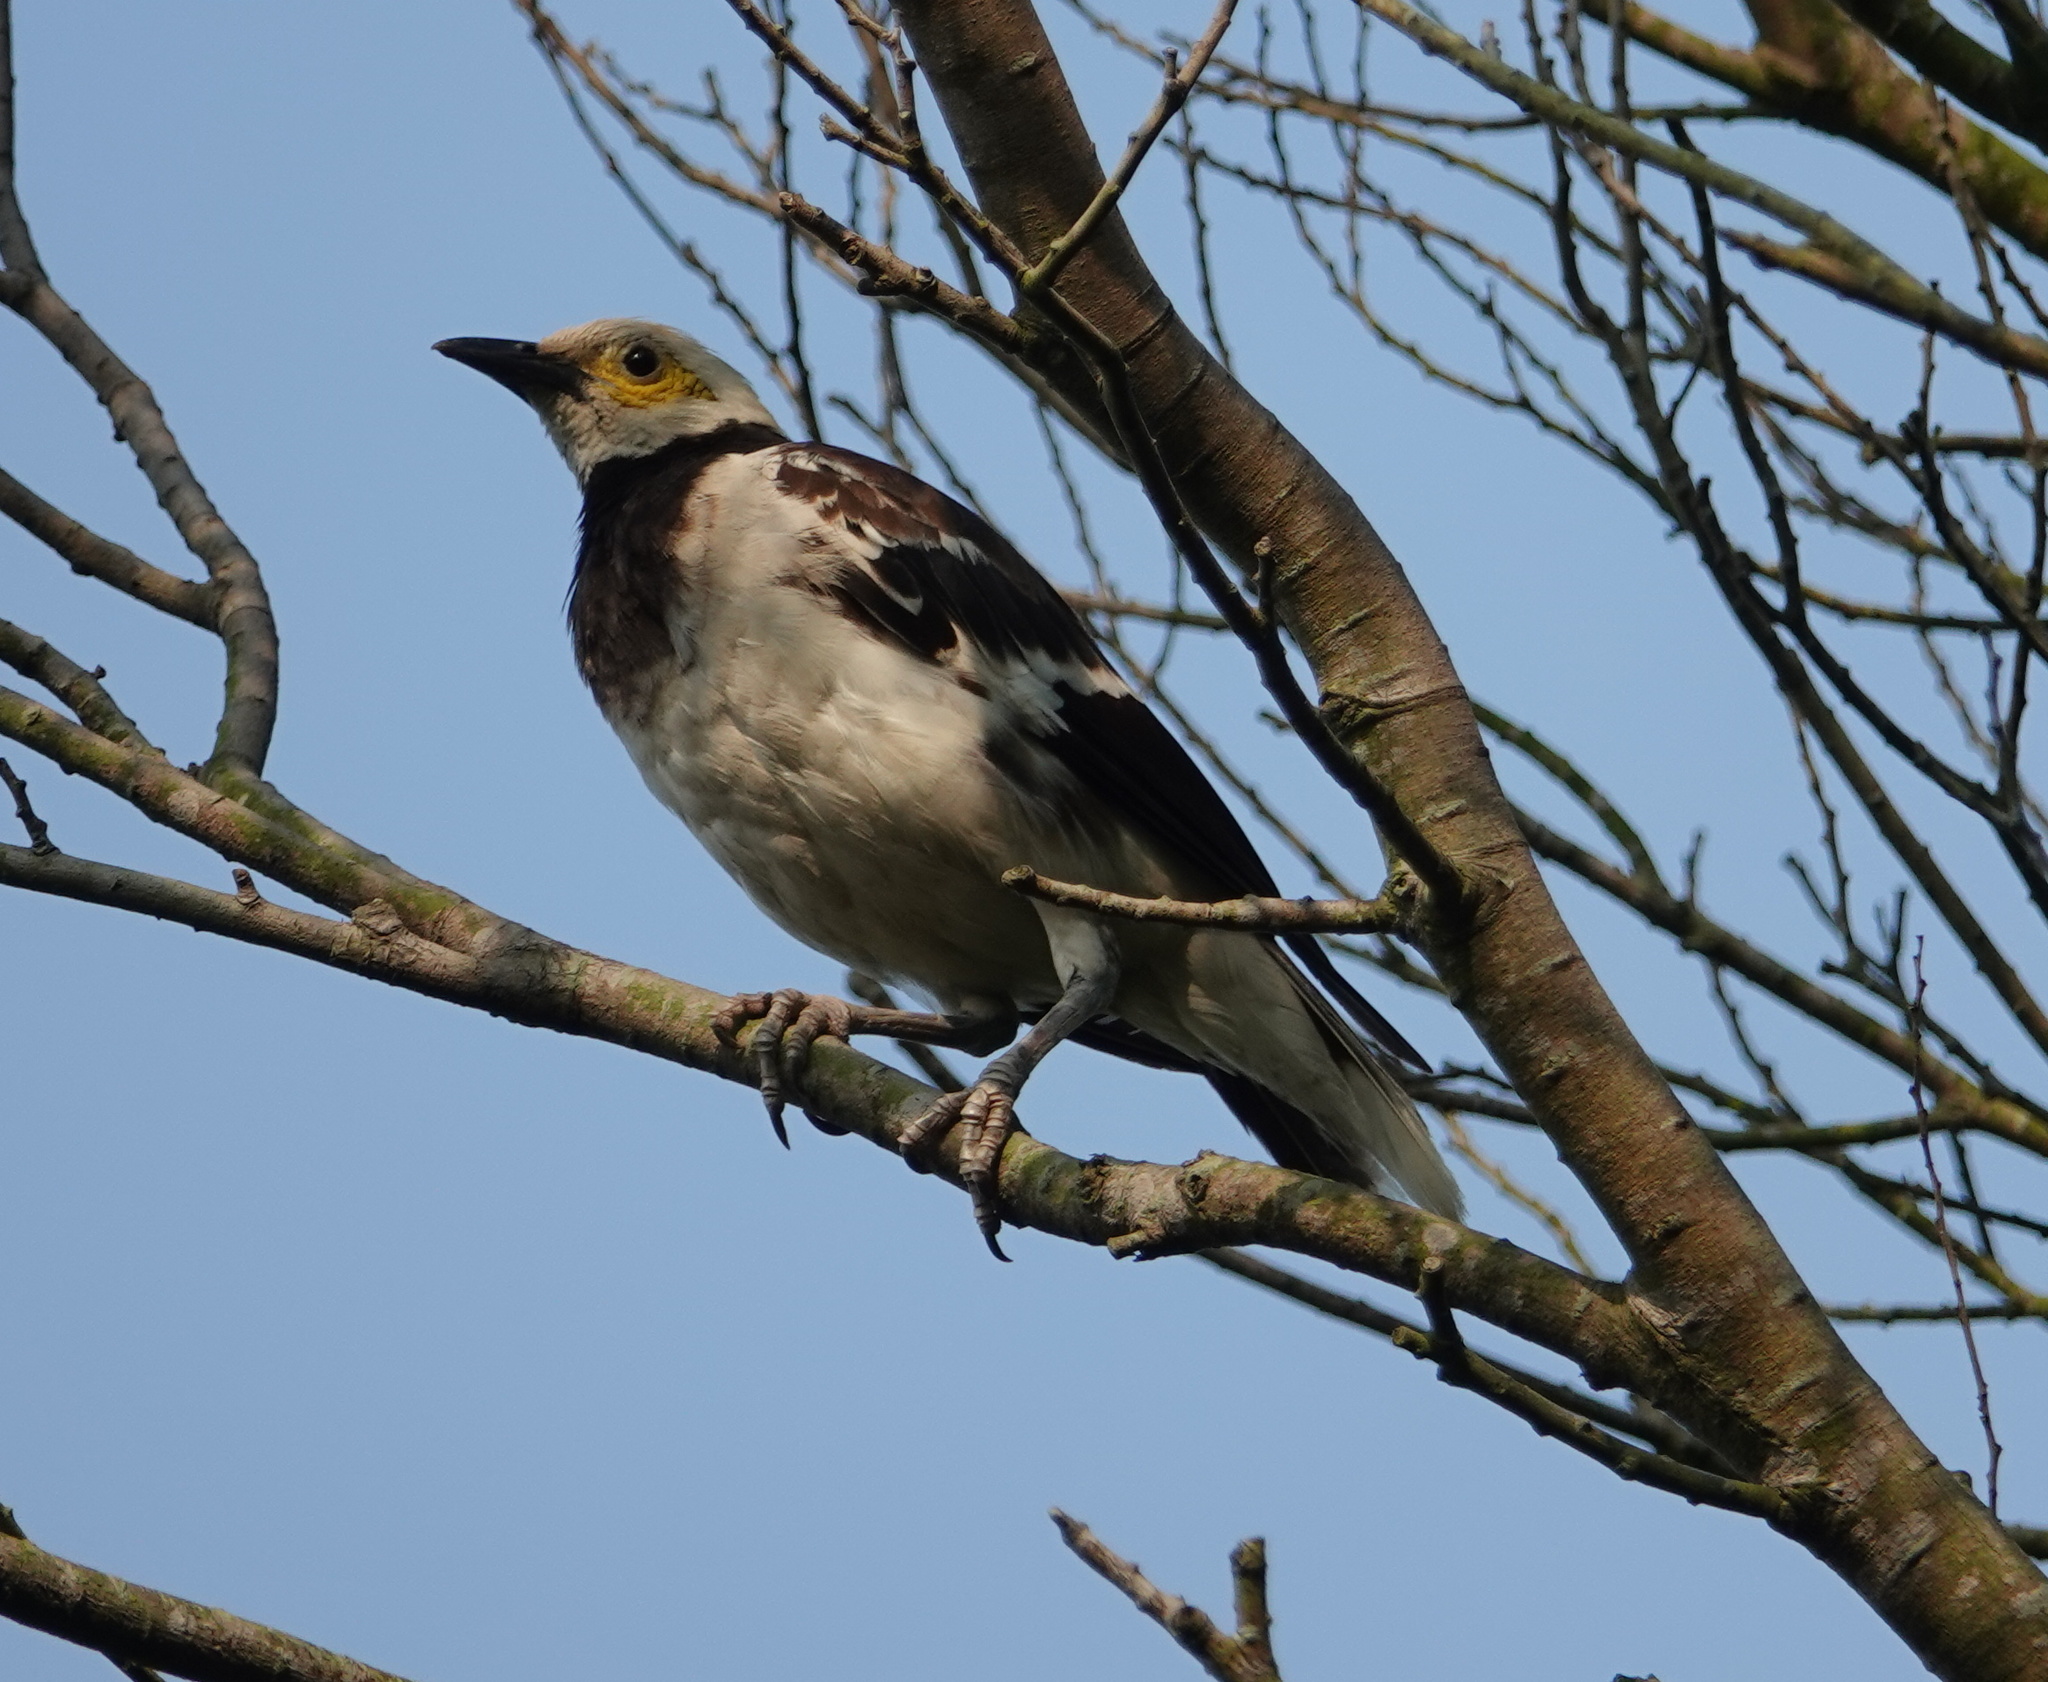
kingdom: Animalia
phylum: Chordata
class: Aves
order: Passeriformes
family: Sturnidae
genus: Gracupica
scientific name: Gracupica nigricollis
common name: Black-collared starling
